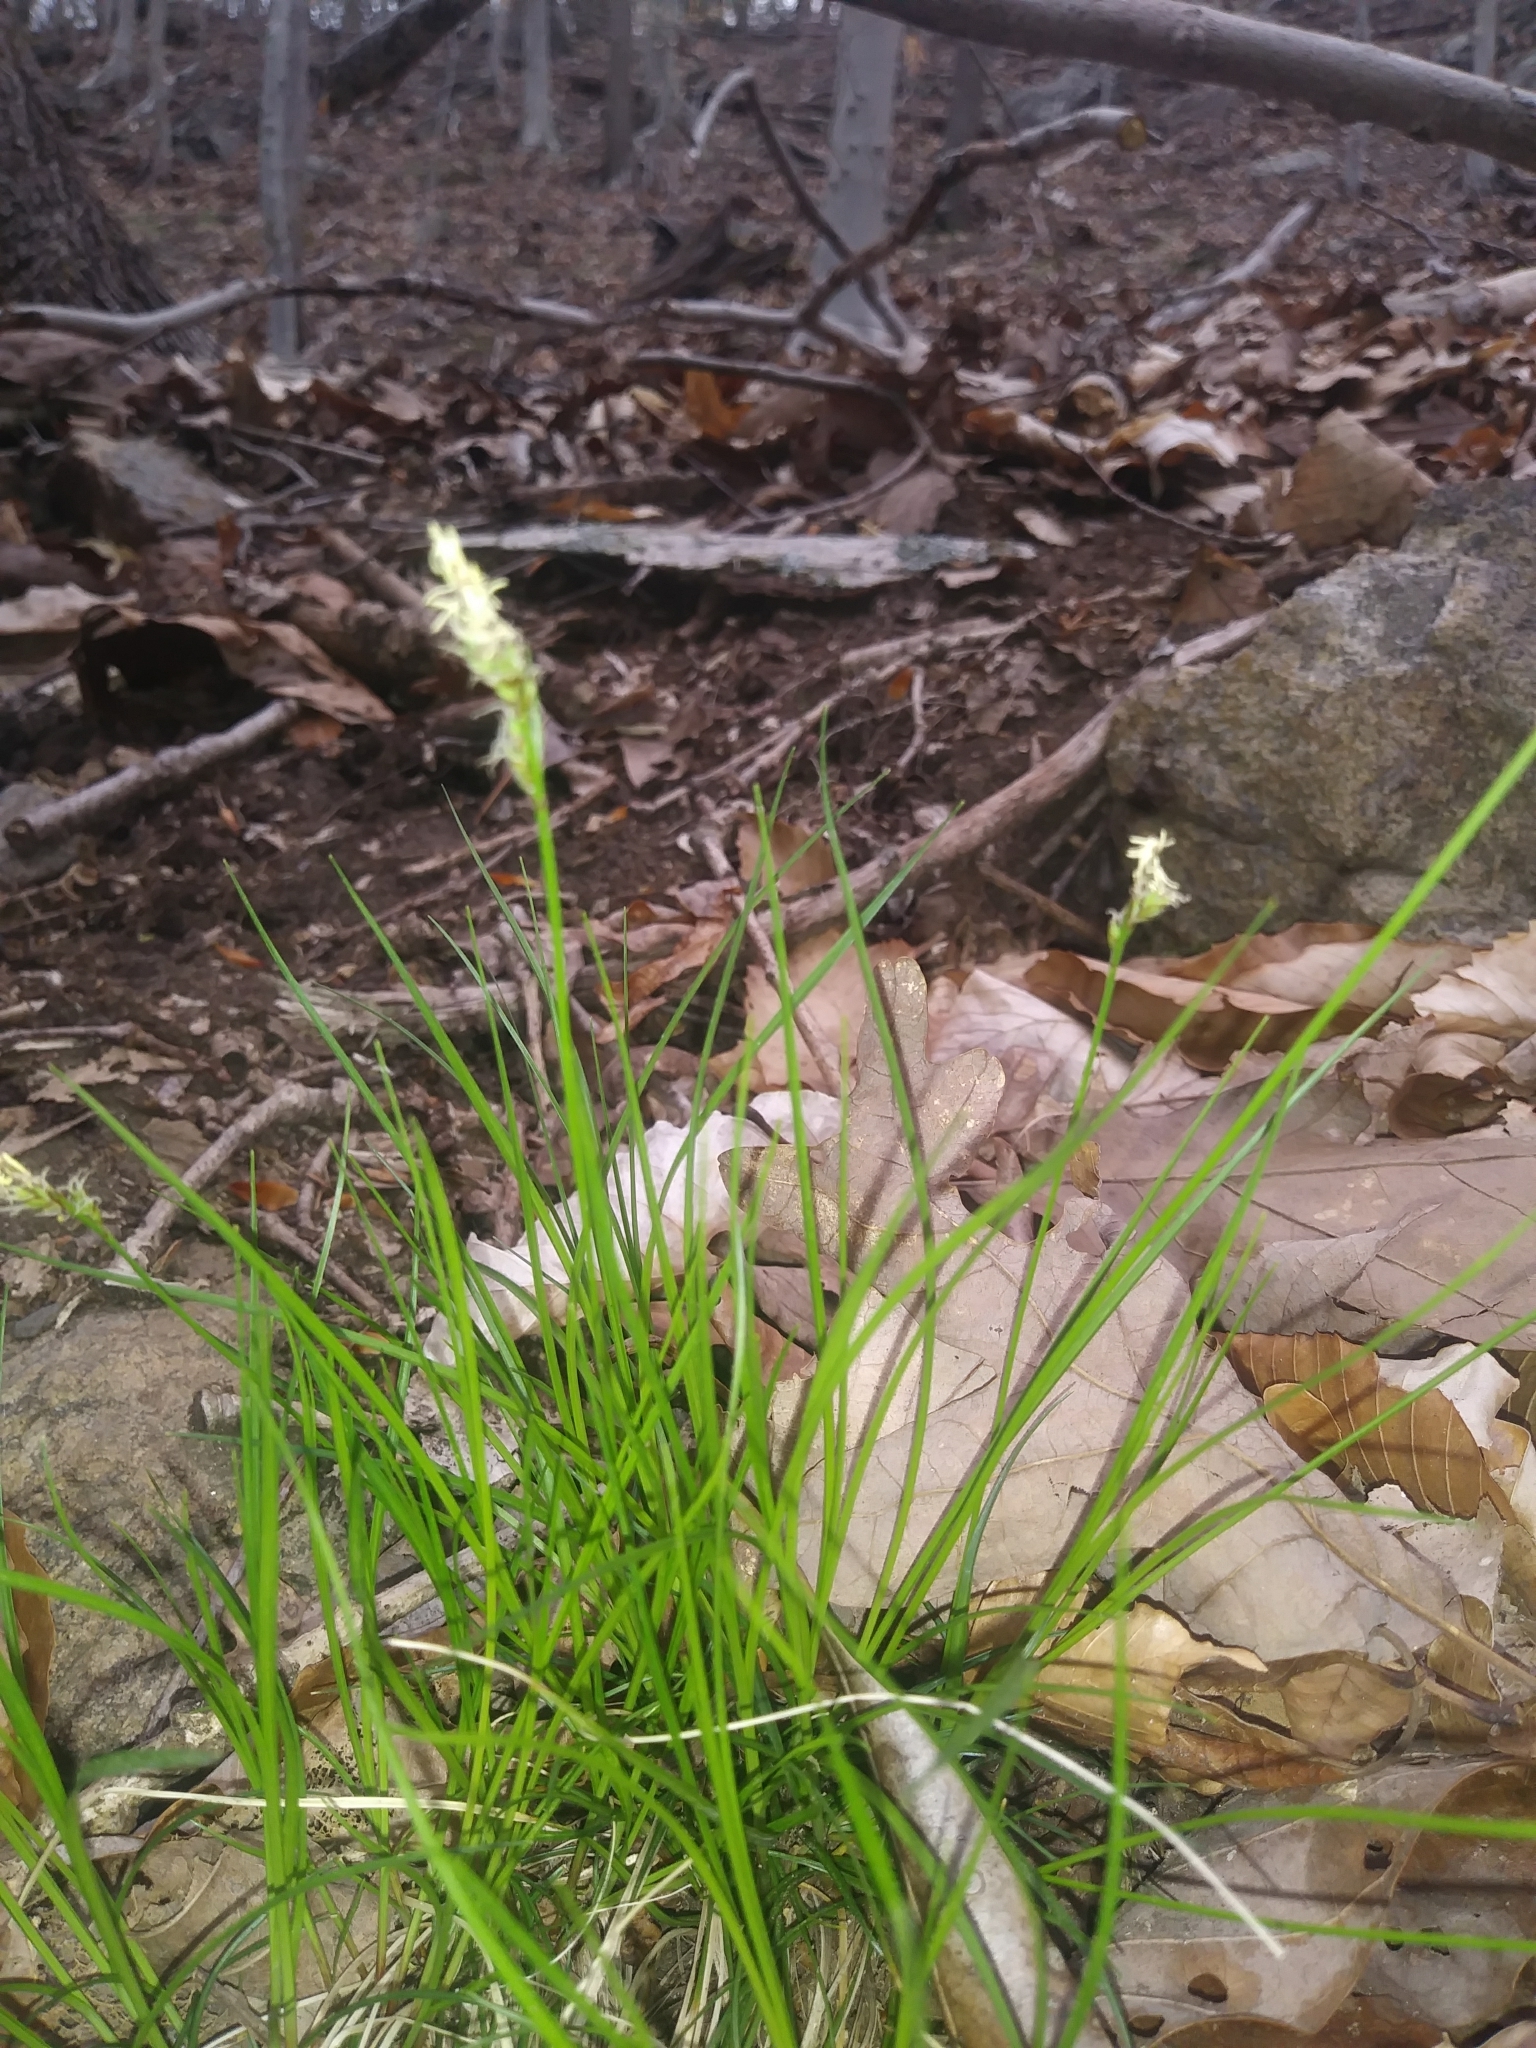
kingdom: Plantae
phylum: Tracheophyta
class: Liliopsida
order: Poales
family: Cyperaceae
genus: Carex
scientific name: Carex pensylvanica
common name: Common oak sedge
